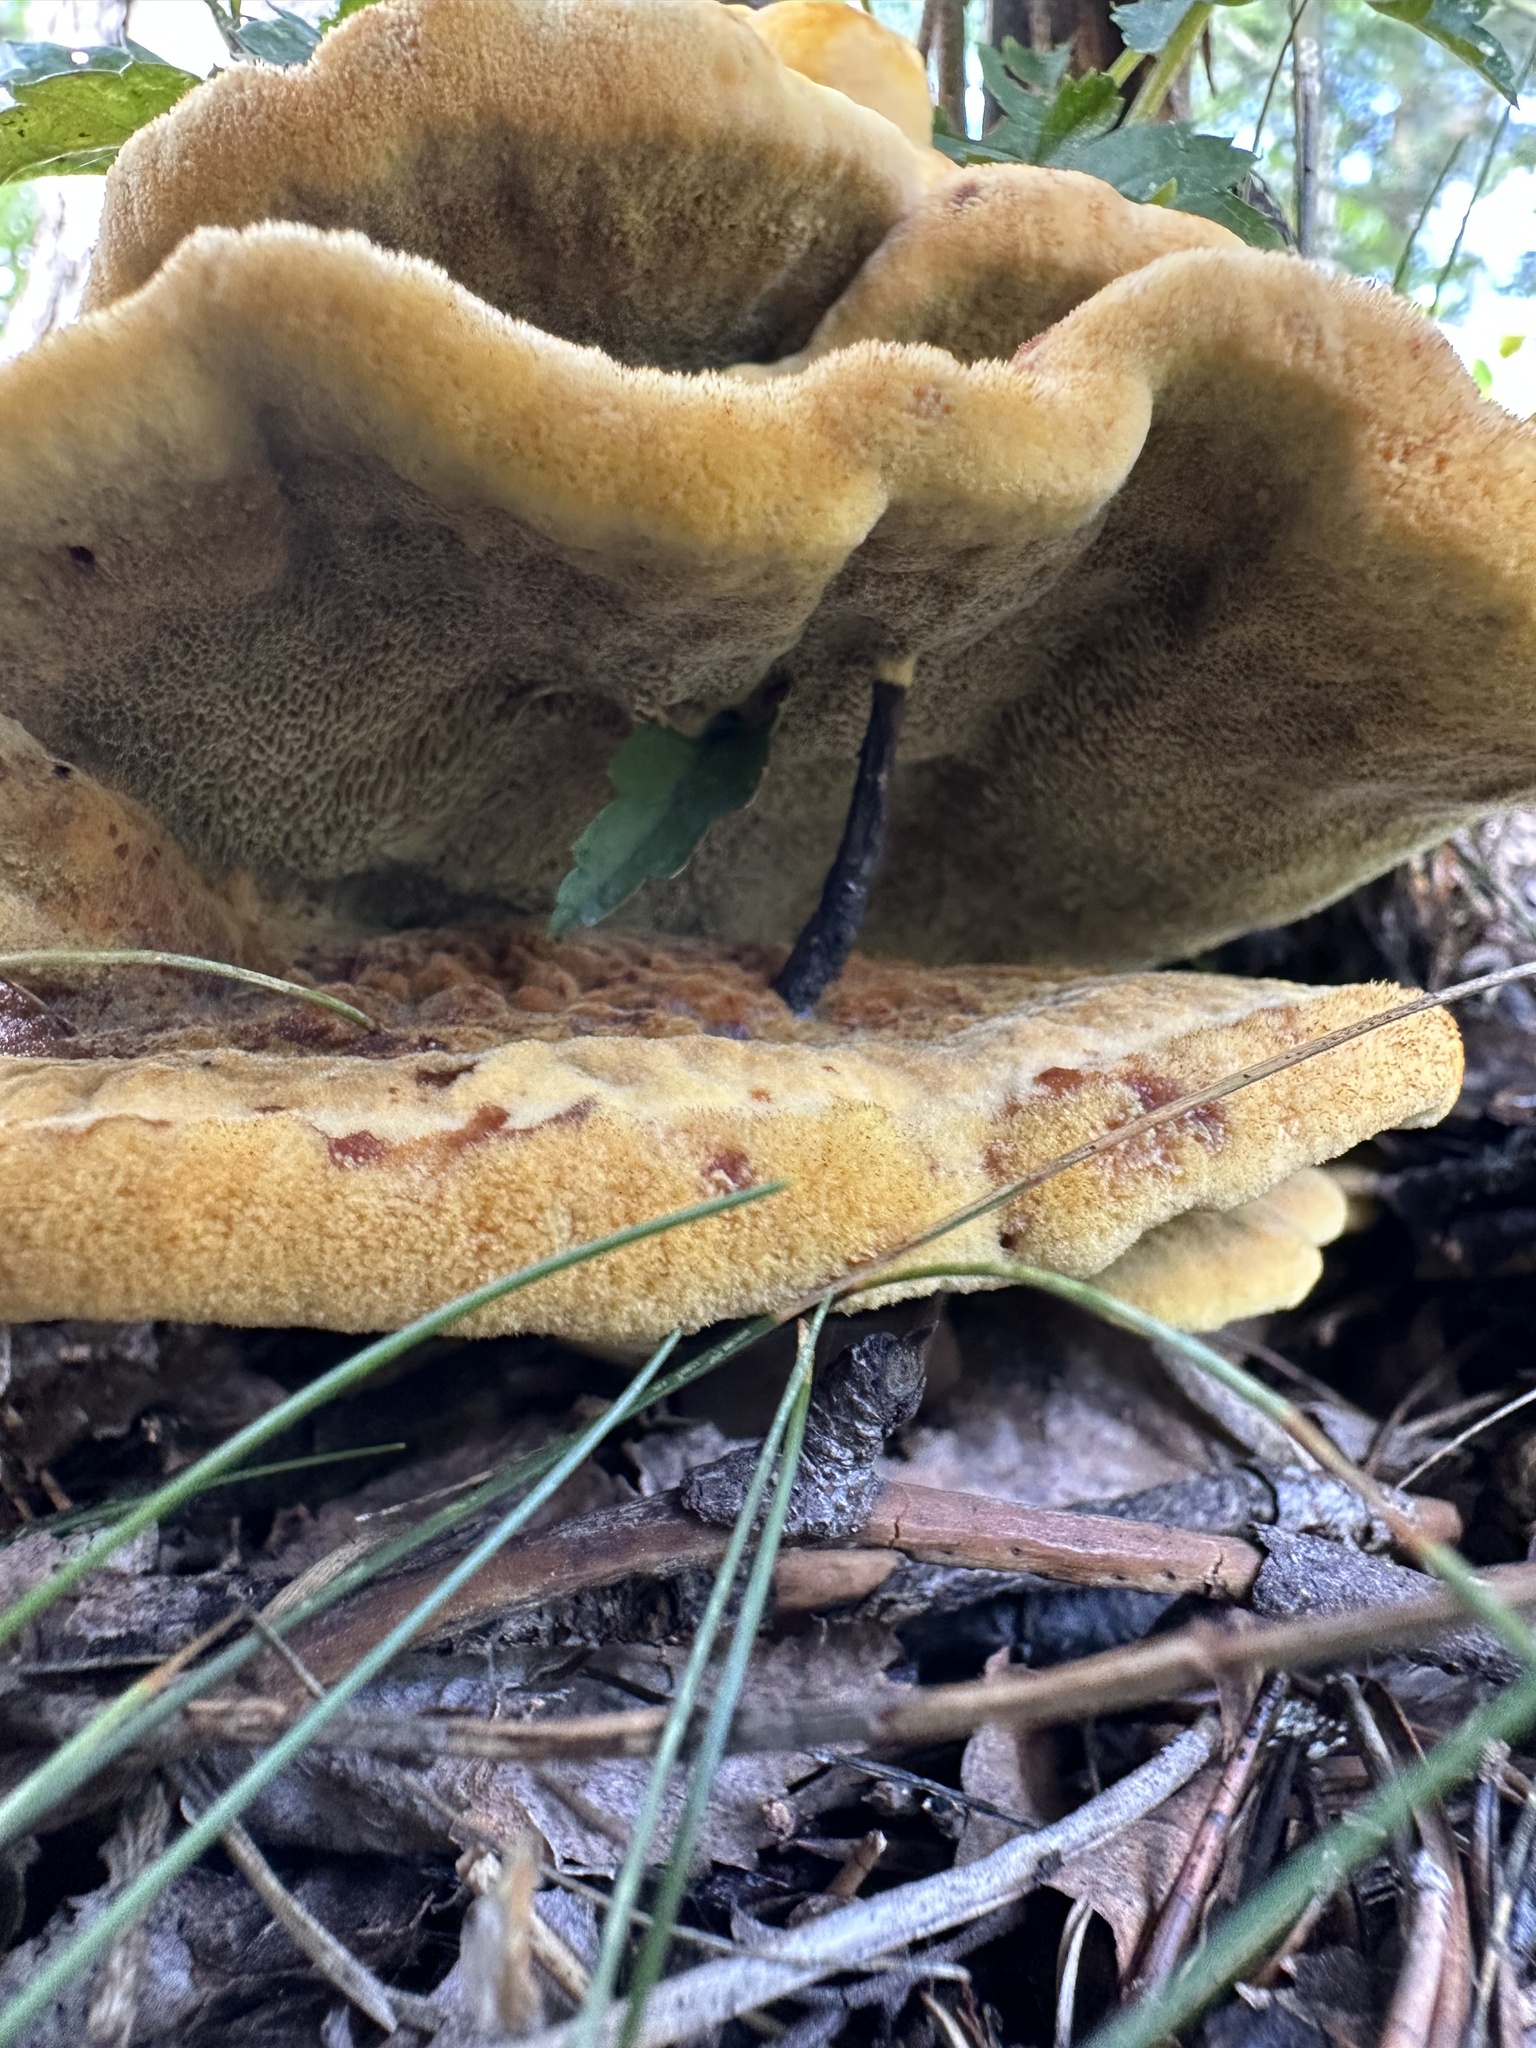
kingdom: Fungi
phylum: Basidiomycota
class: Agaricomycetes
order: Polyporales
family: Laetiporaceae
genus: Phaeolus
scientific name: Phaeolus schweinitzii
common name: Dyer's mazegill
